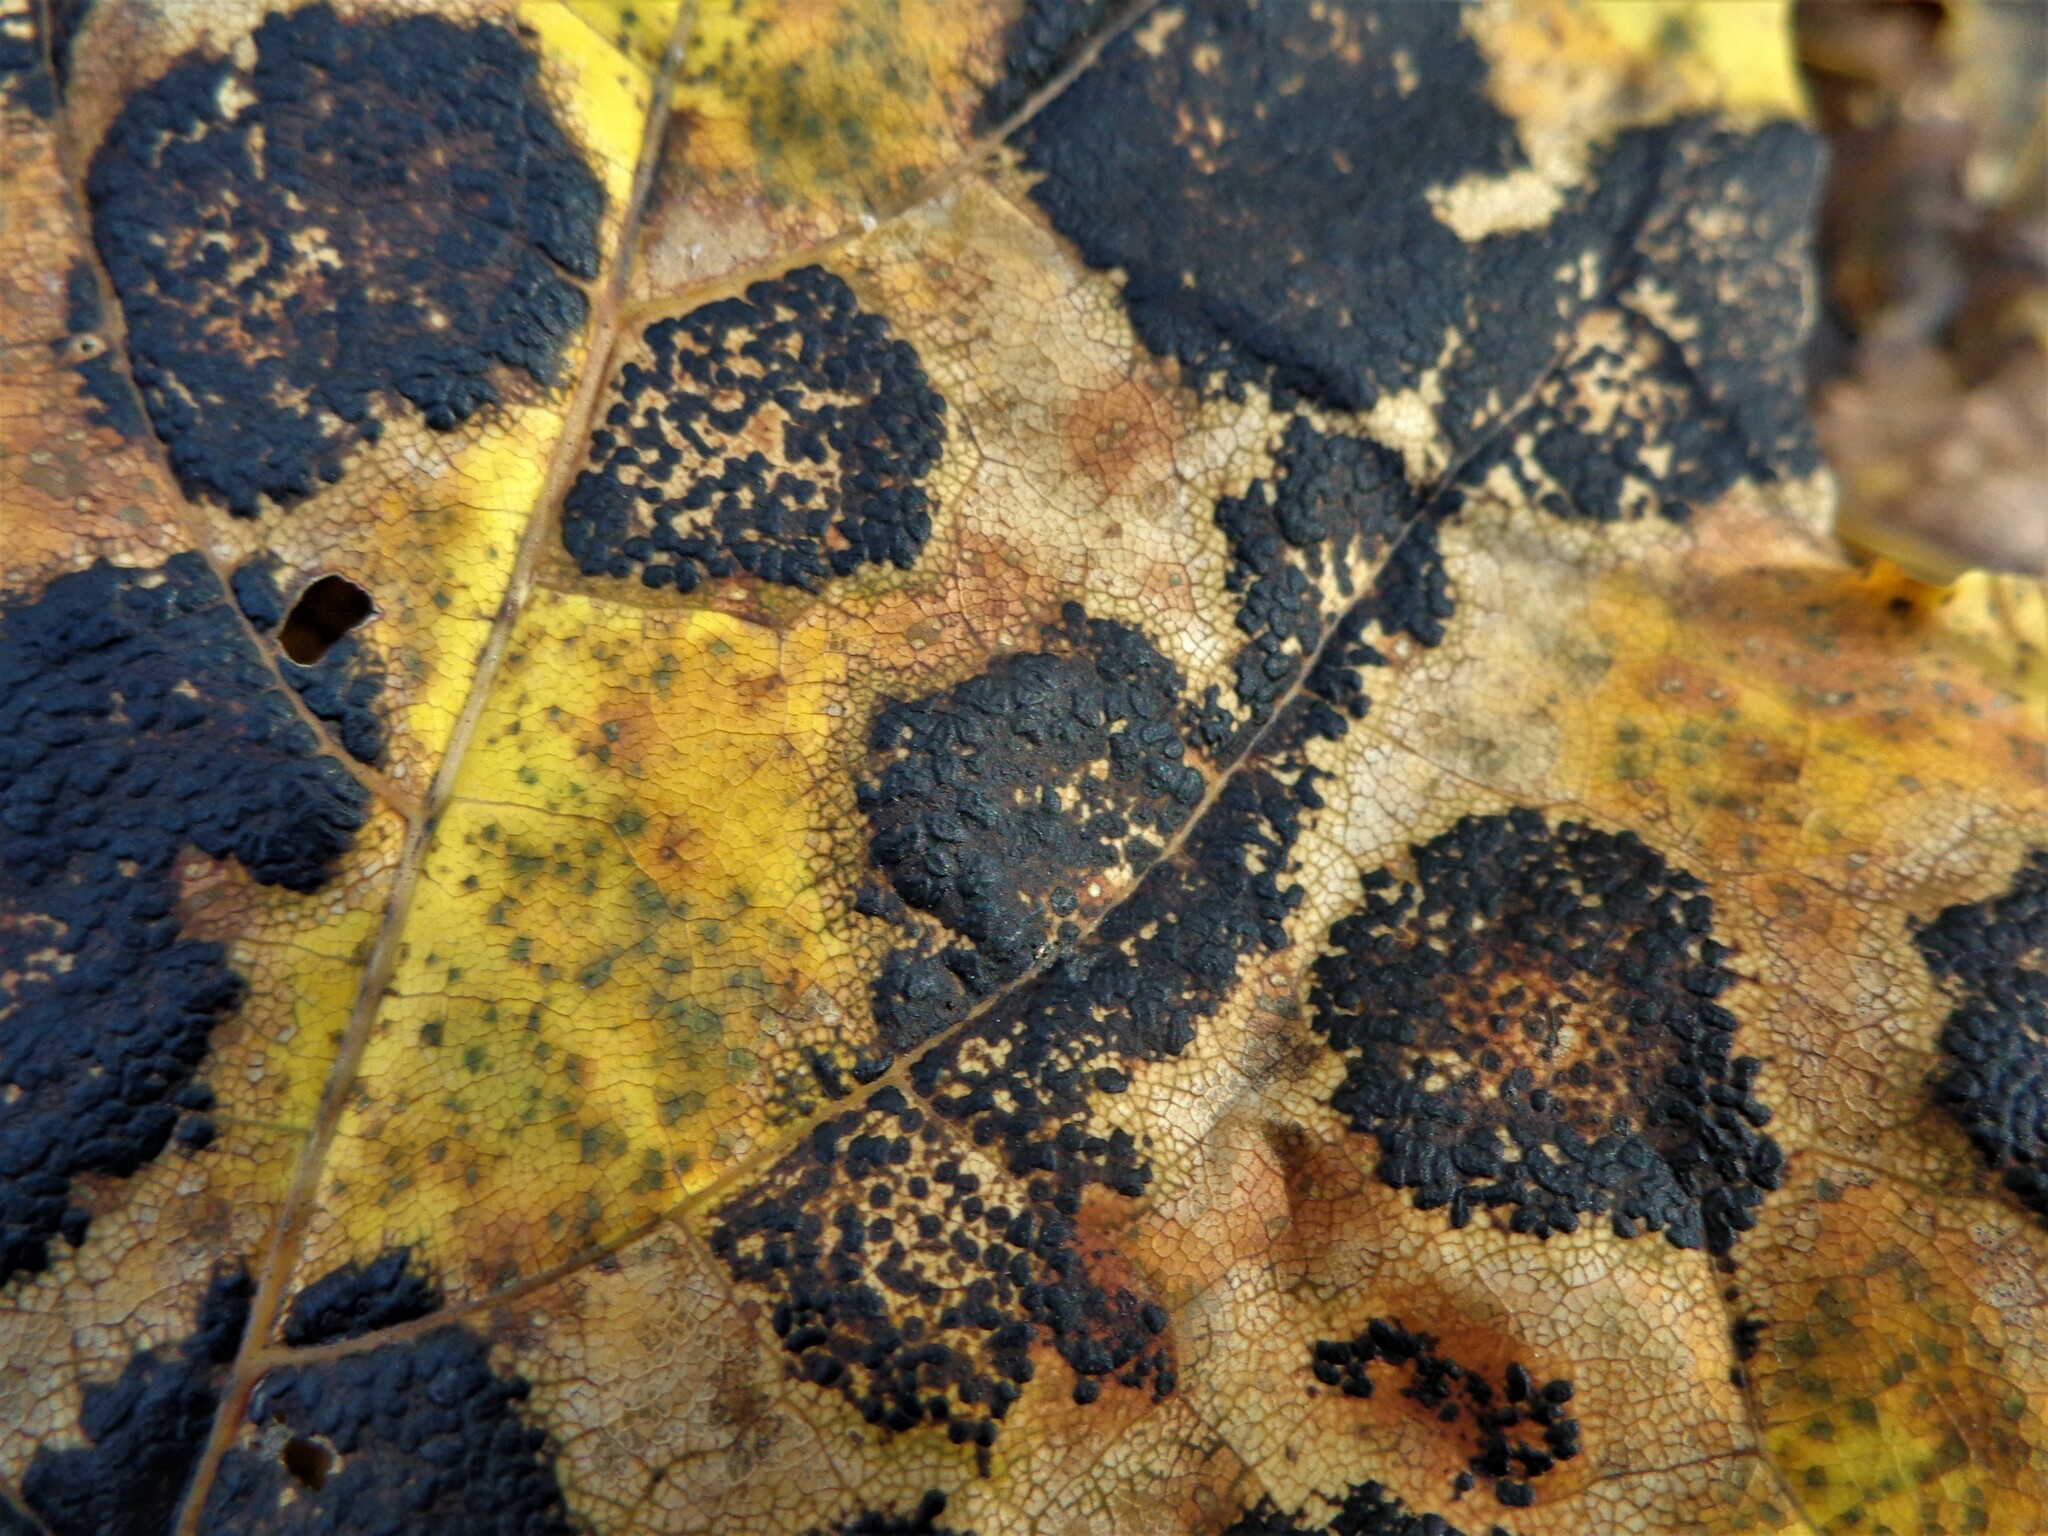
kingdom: Fungi
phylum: Ascomycota
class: Leotiomycetes
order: Rhytismatales
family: Rhytismataceae
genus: Rhytisma
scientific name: Rhytisma acerinum
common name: European tar spot
